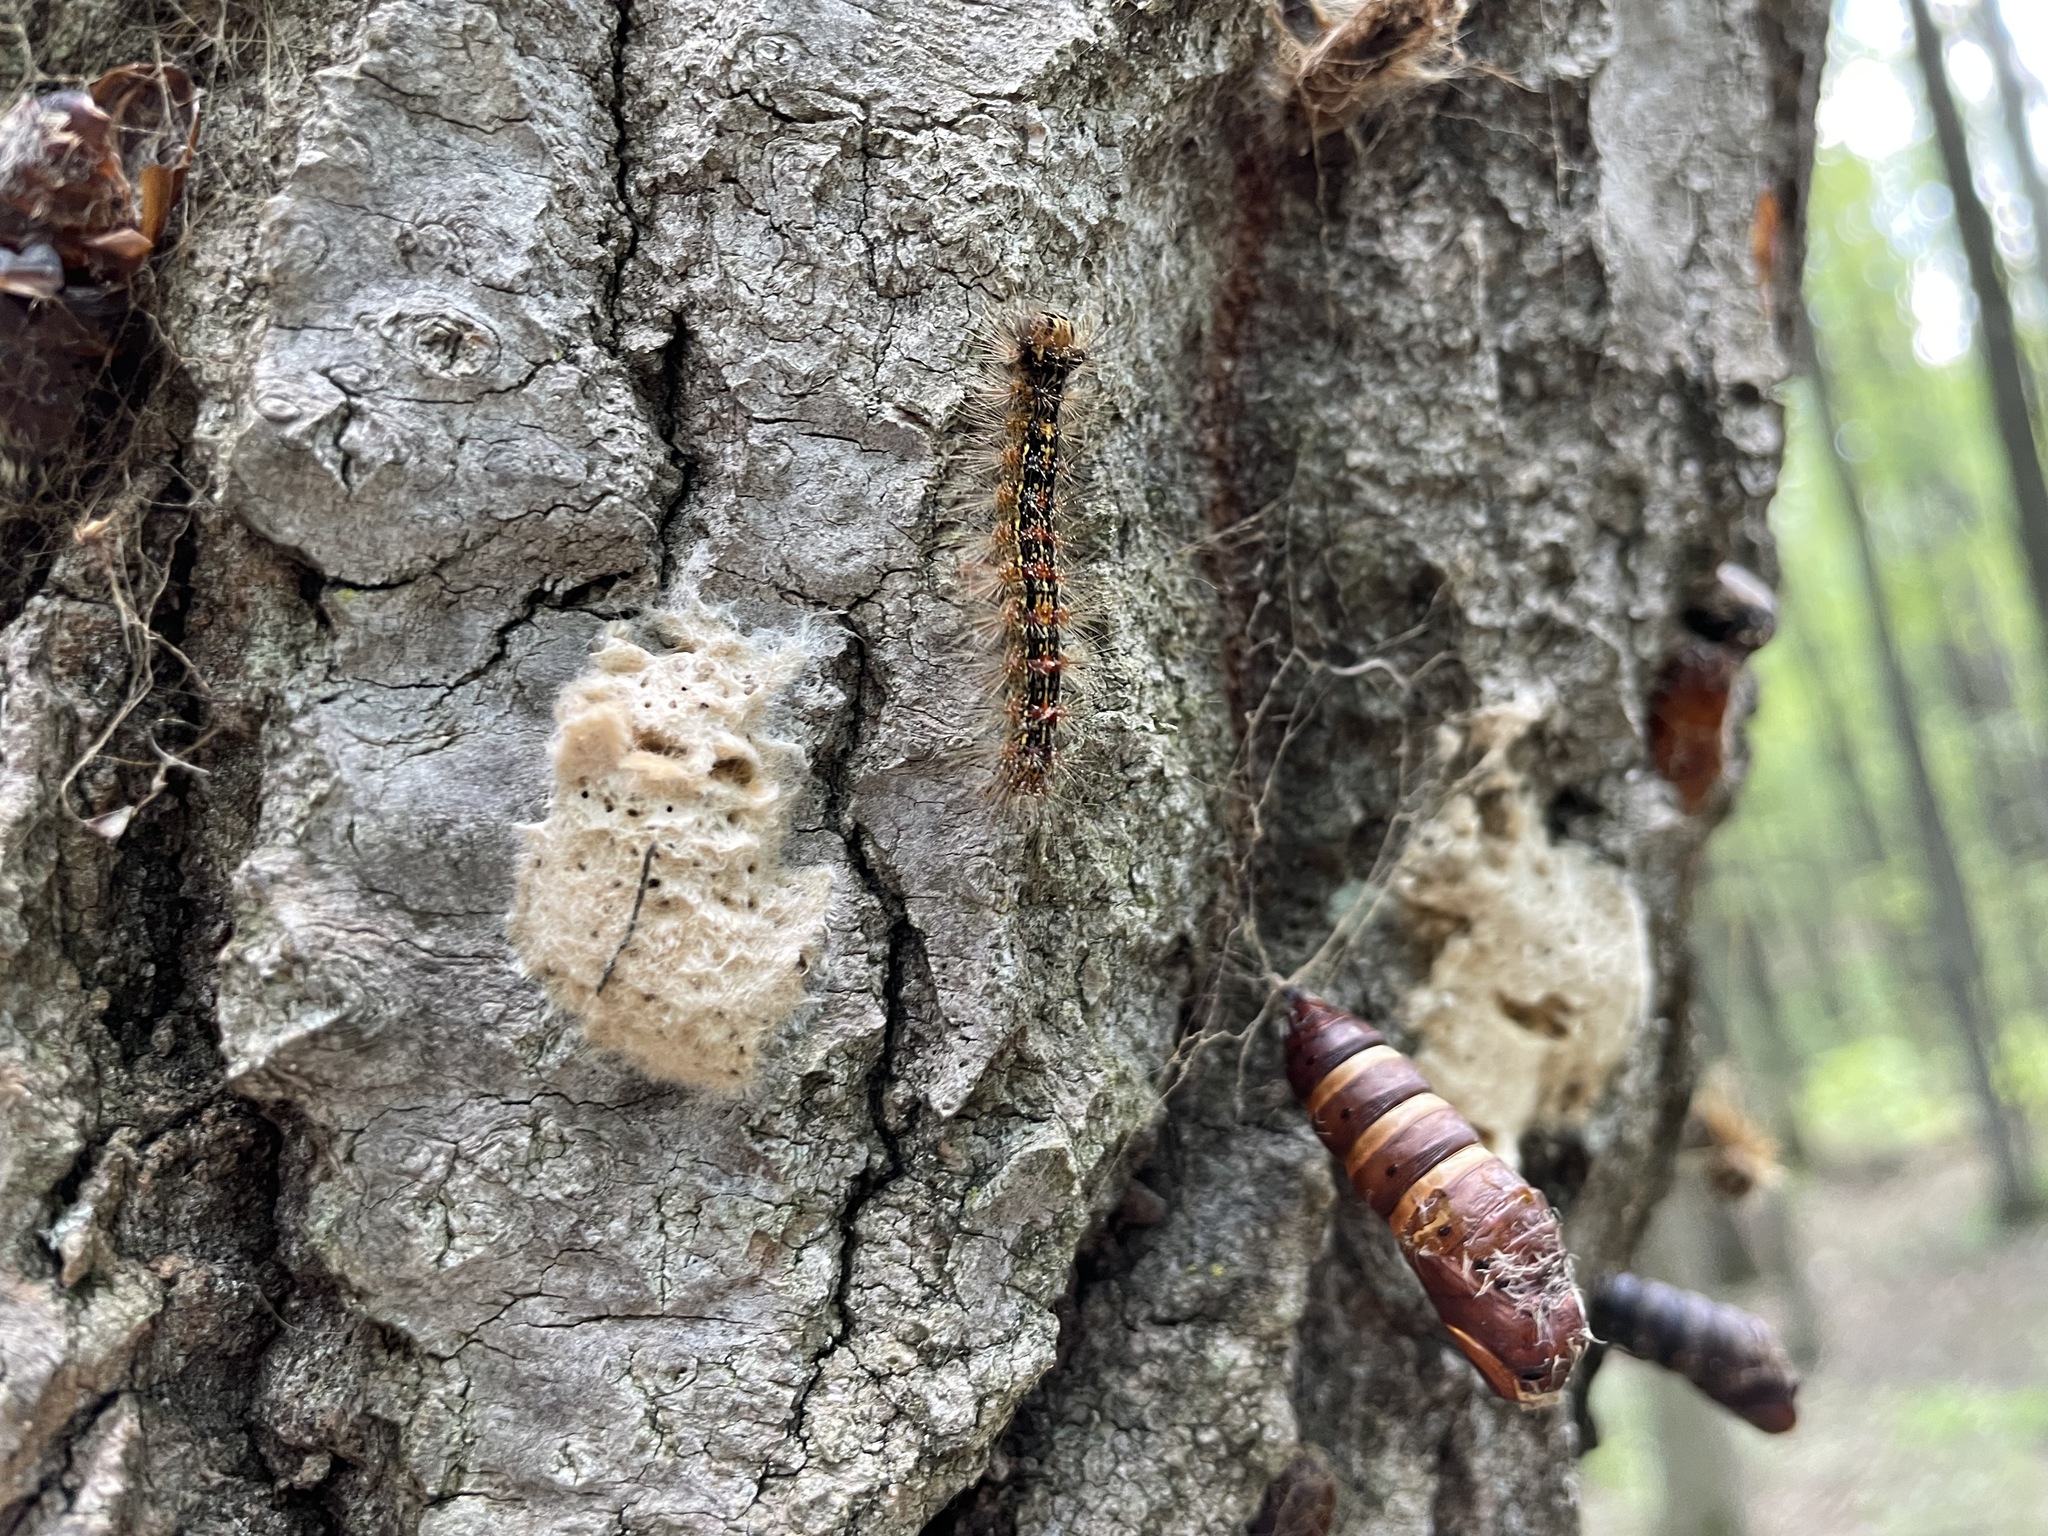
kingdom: Animalia
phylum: Arthropoda
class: Insecta
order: Lepidoptera
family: Erebidae
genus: Lymantria
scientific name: Lymantria dispar
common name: Gypsy moth
